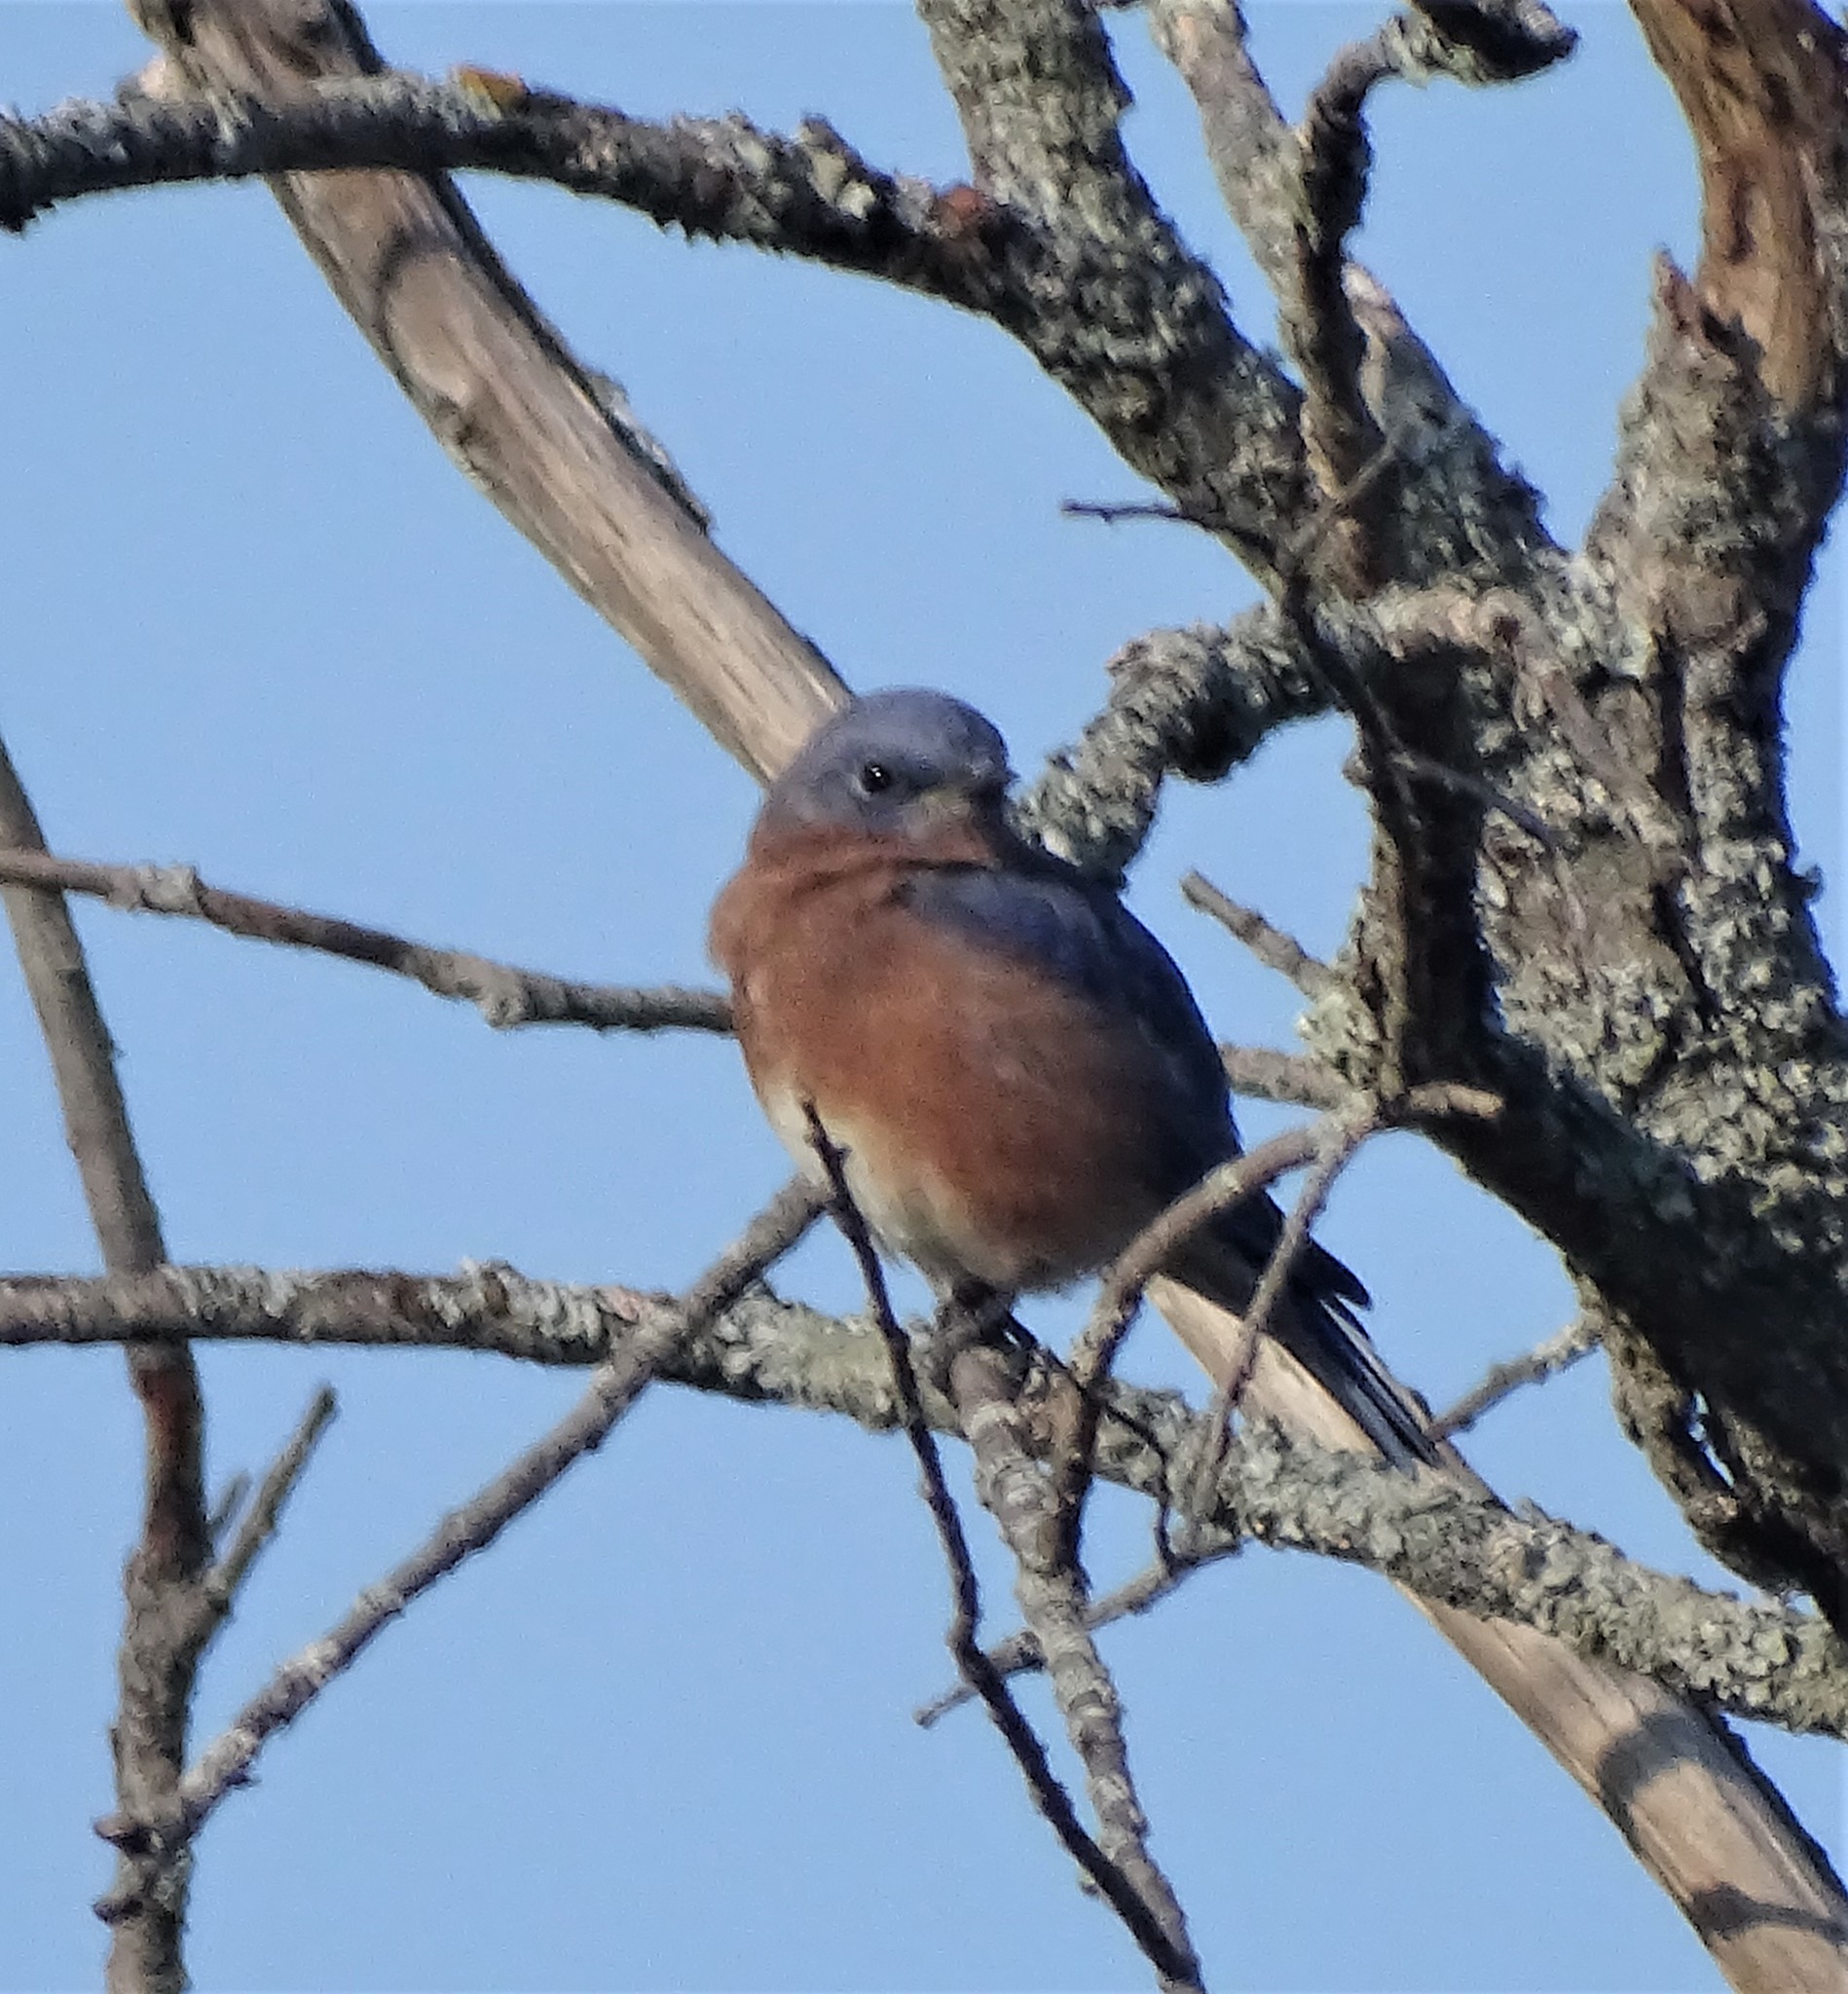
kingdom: Animalia
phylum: Chordata
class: Aves
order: Passeriformes
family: Turdidae
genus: Sialia
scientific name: Sialia sialis
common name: Eastern bluebird
